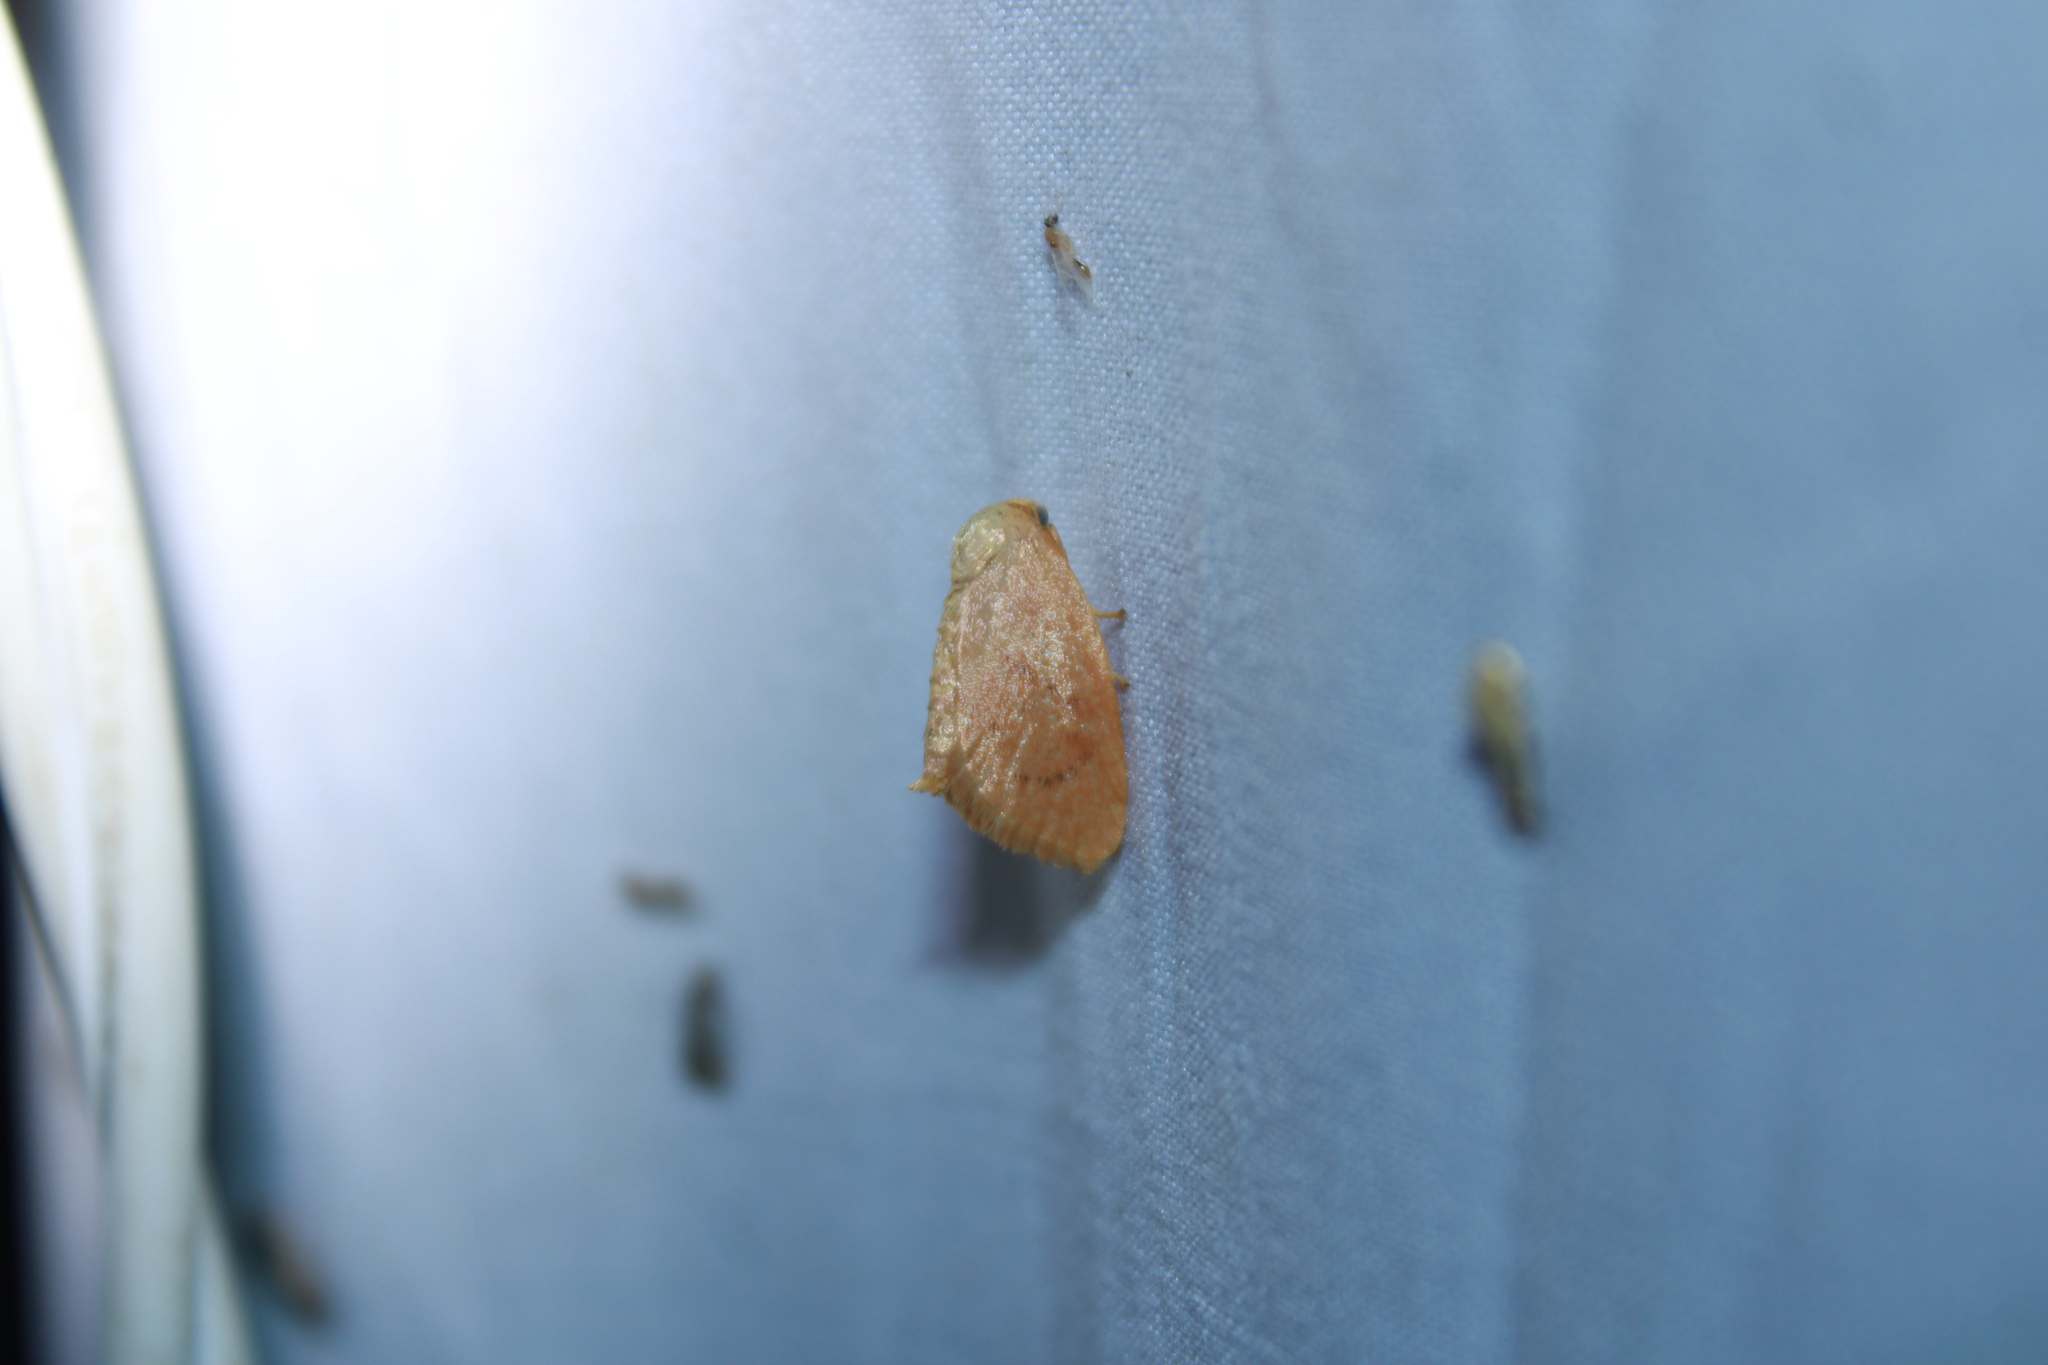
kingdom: Animalia
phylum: Arthropoda
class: Insecta
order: Lepidoptera
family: Limacodidae
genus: Tortricidia
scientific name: Tortricidia pallida
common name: Red-crossed button slug moth
